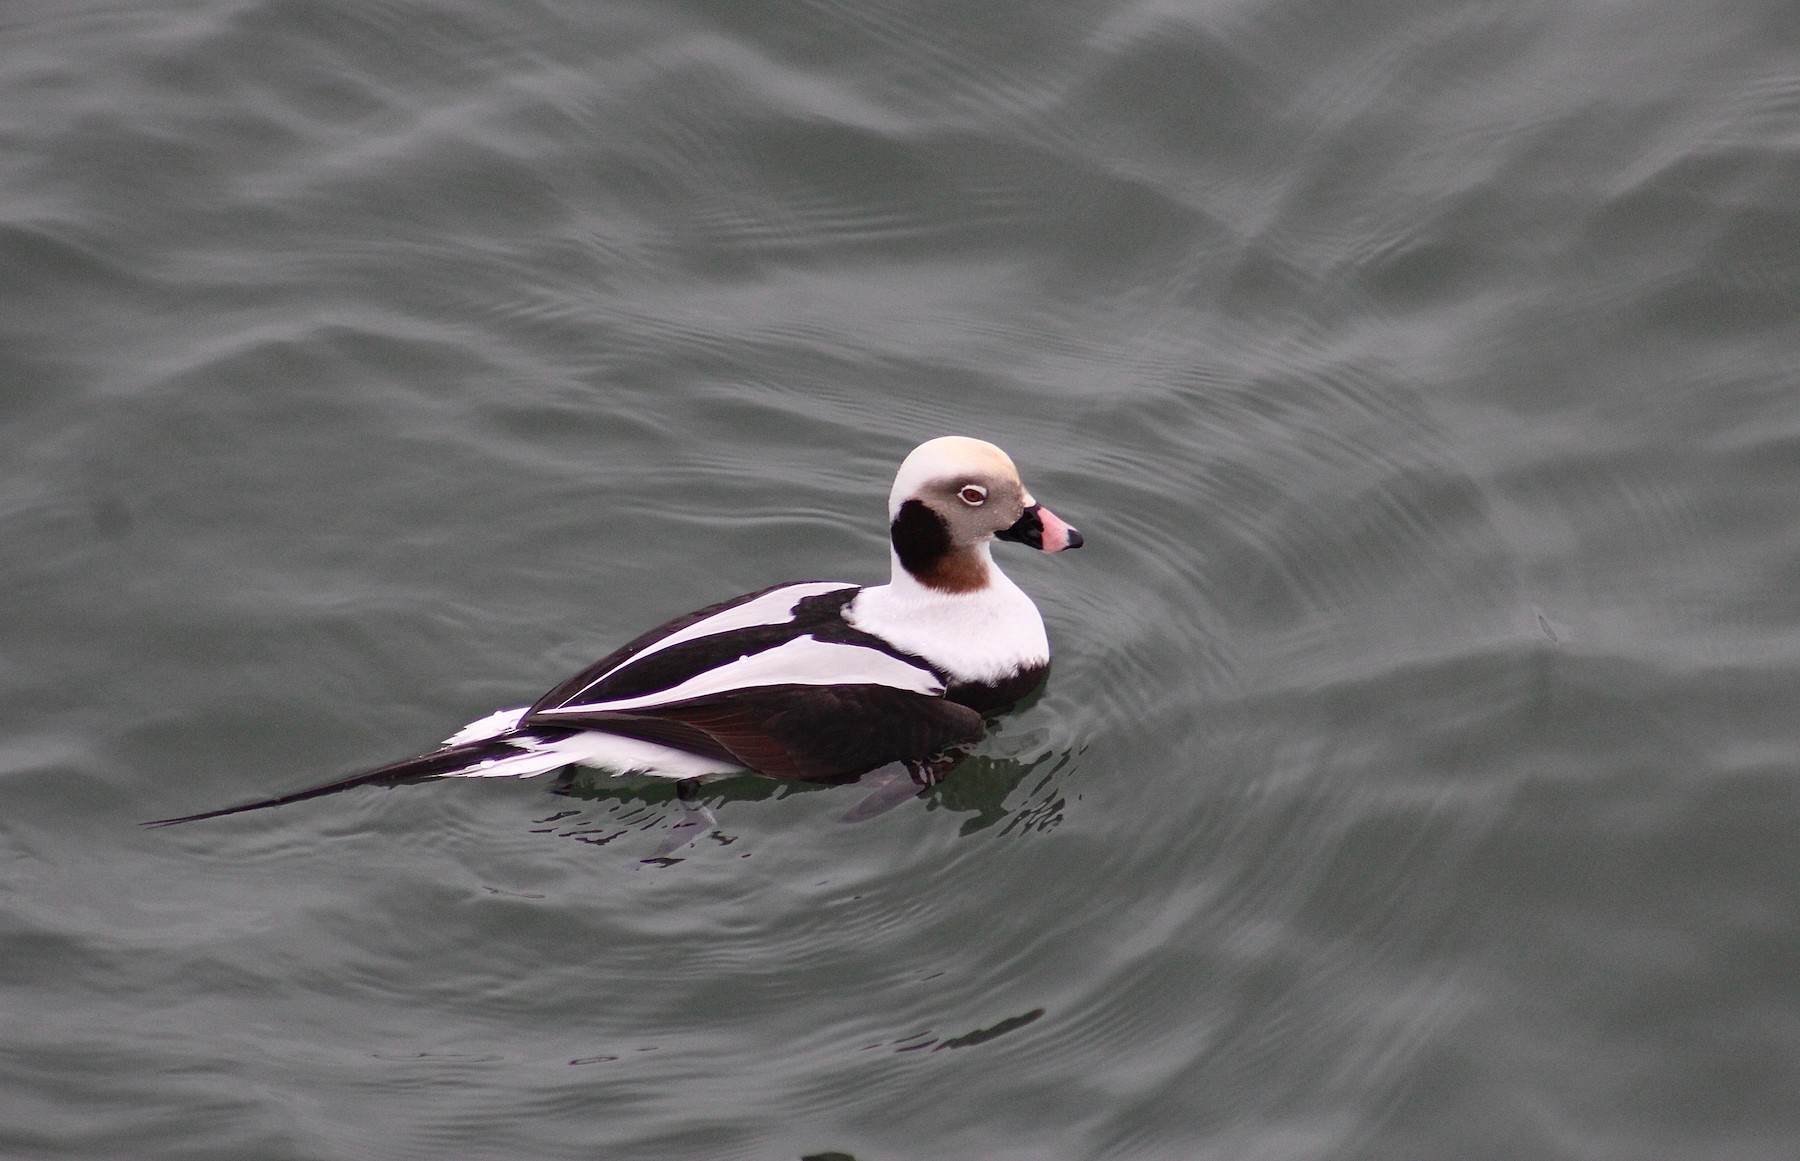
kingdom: Animalia
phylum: Chordata
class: Aves
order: Anseriformes
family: Anatidae
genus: Clangula
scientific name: Clangula hyemalis
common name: Long-tailed duck
